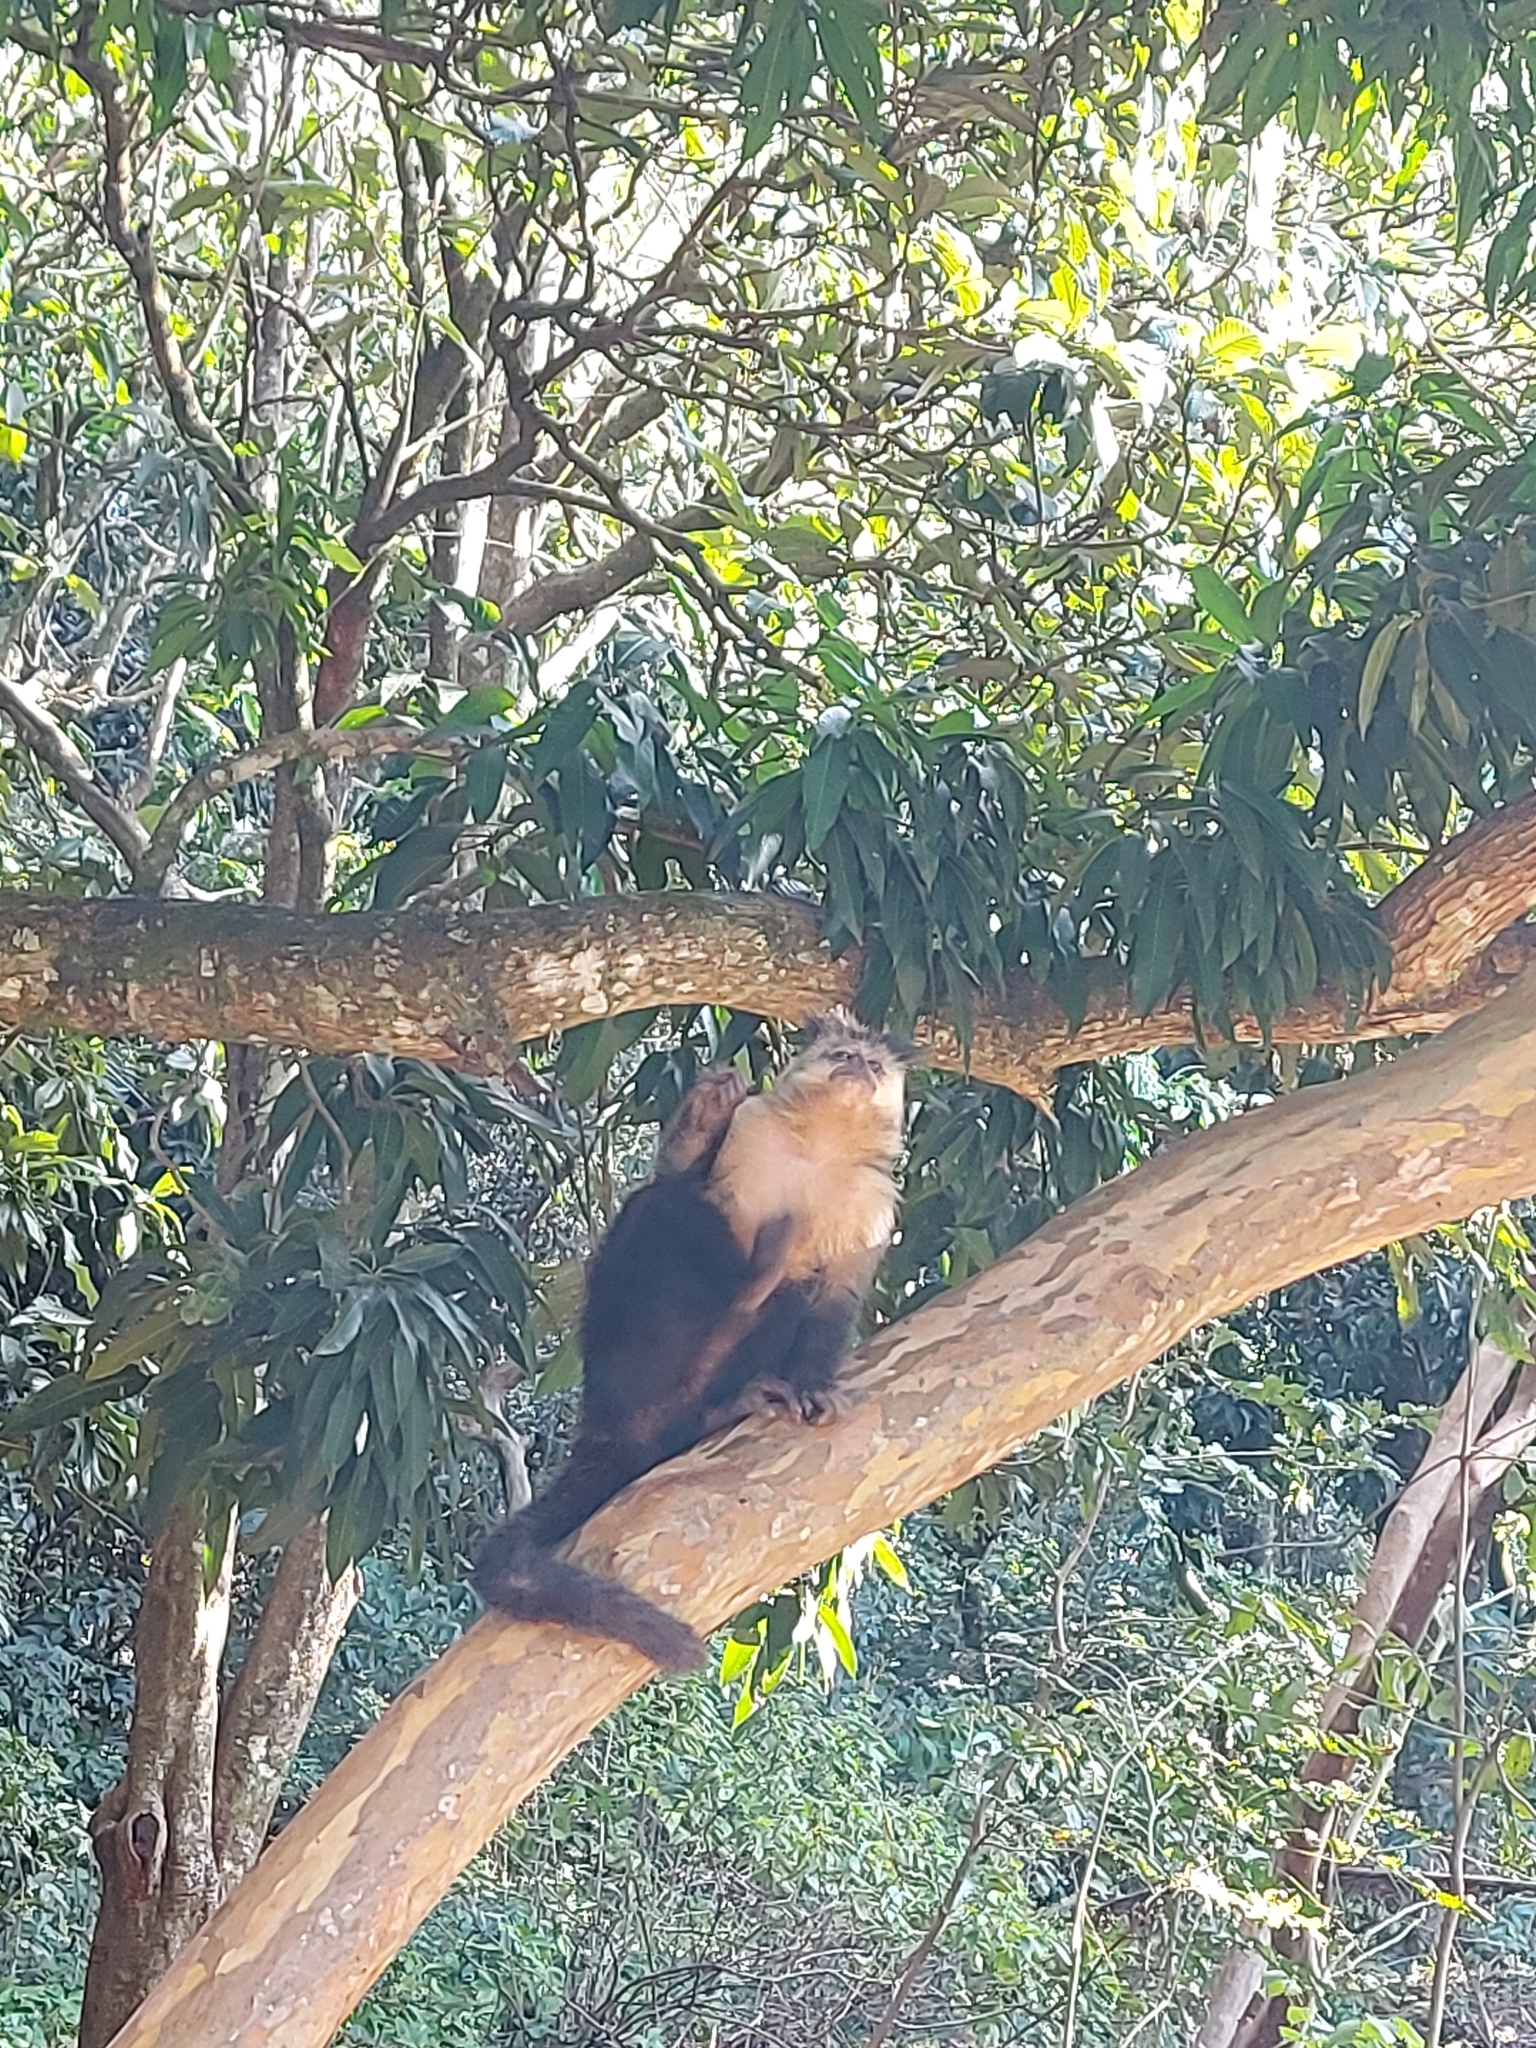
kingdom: Animalia
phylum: Chordata
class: Mammalia
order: Primates
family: Cebidae
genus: Sapajus
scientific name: Sapajus nigritus
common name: Black capuchin
